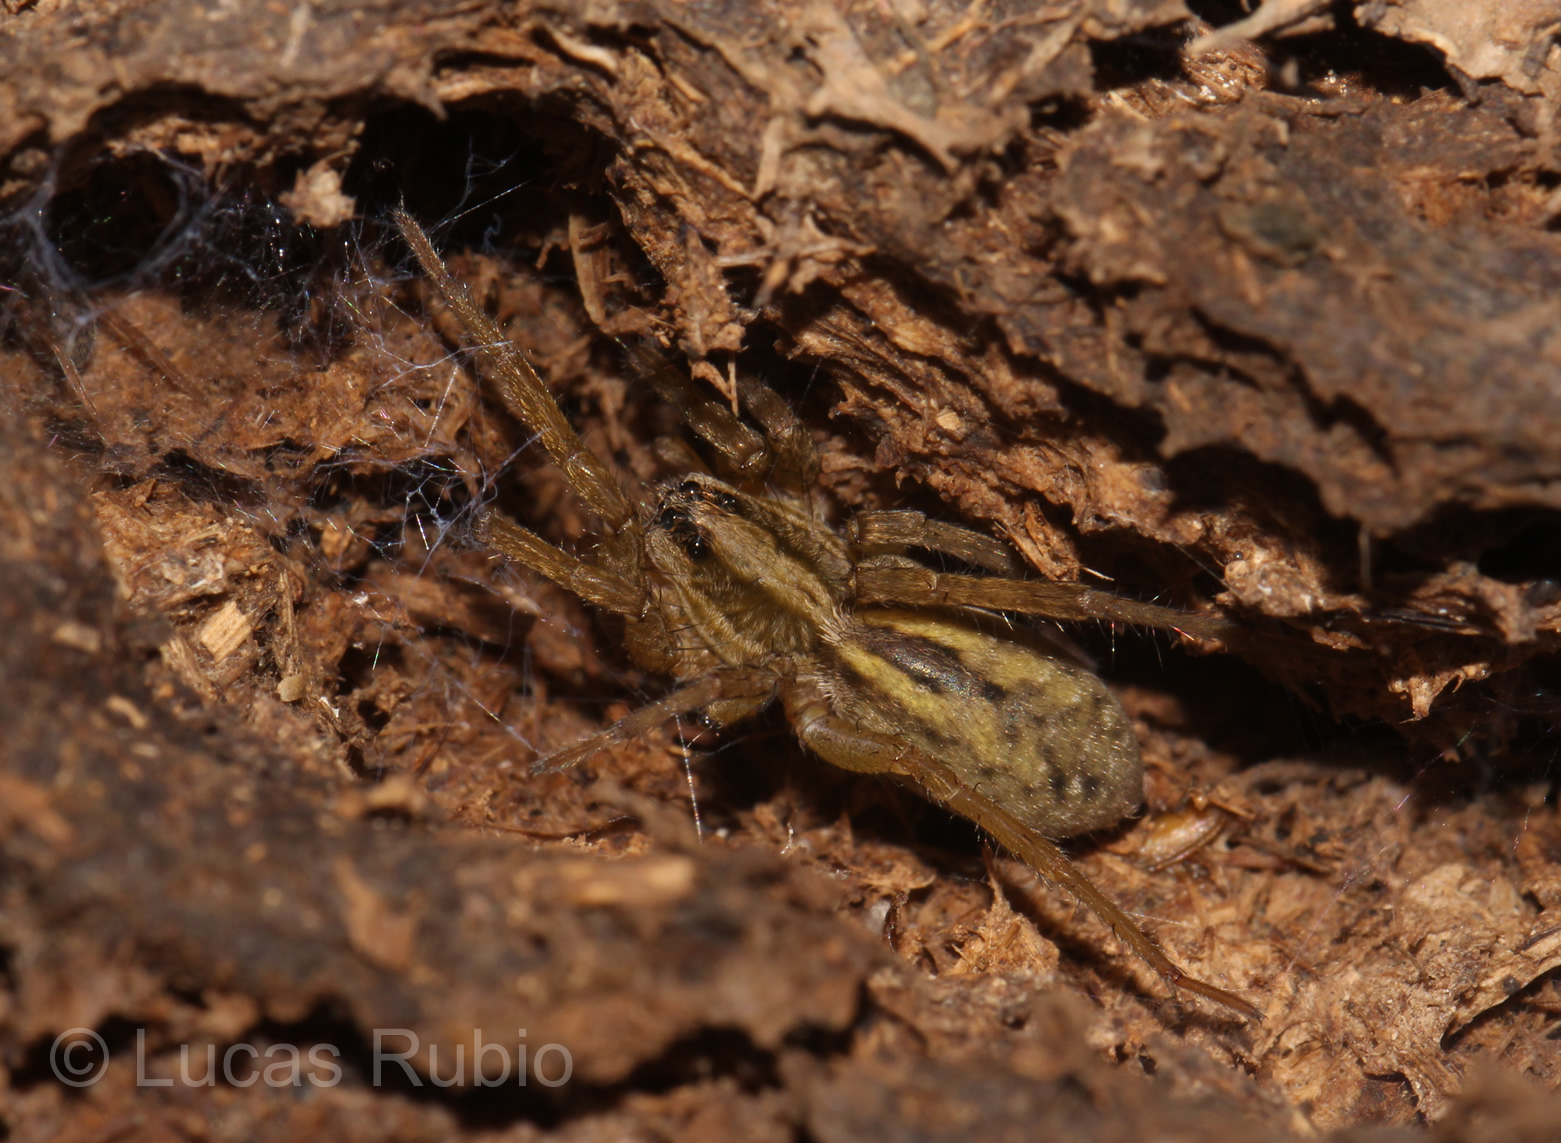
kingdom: Animalia
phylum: Arthropoda
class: Arachnida
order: Araneae
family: Lycosidae
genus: Alopecosa
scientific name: Alopecosa moesta
